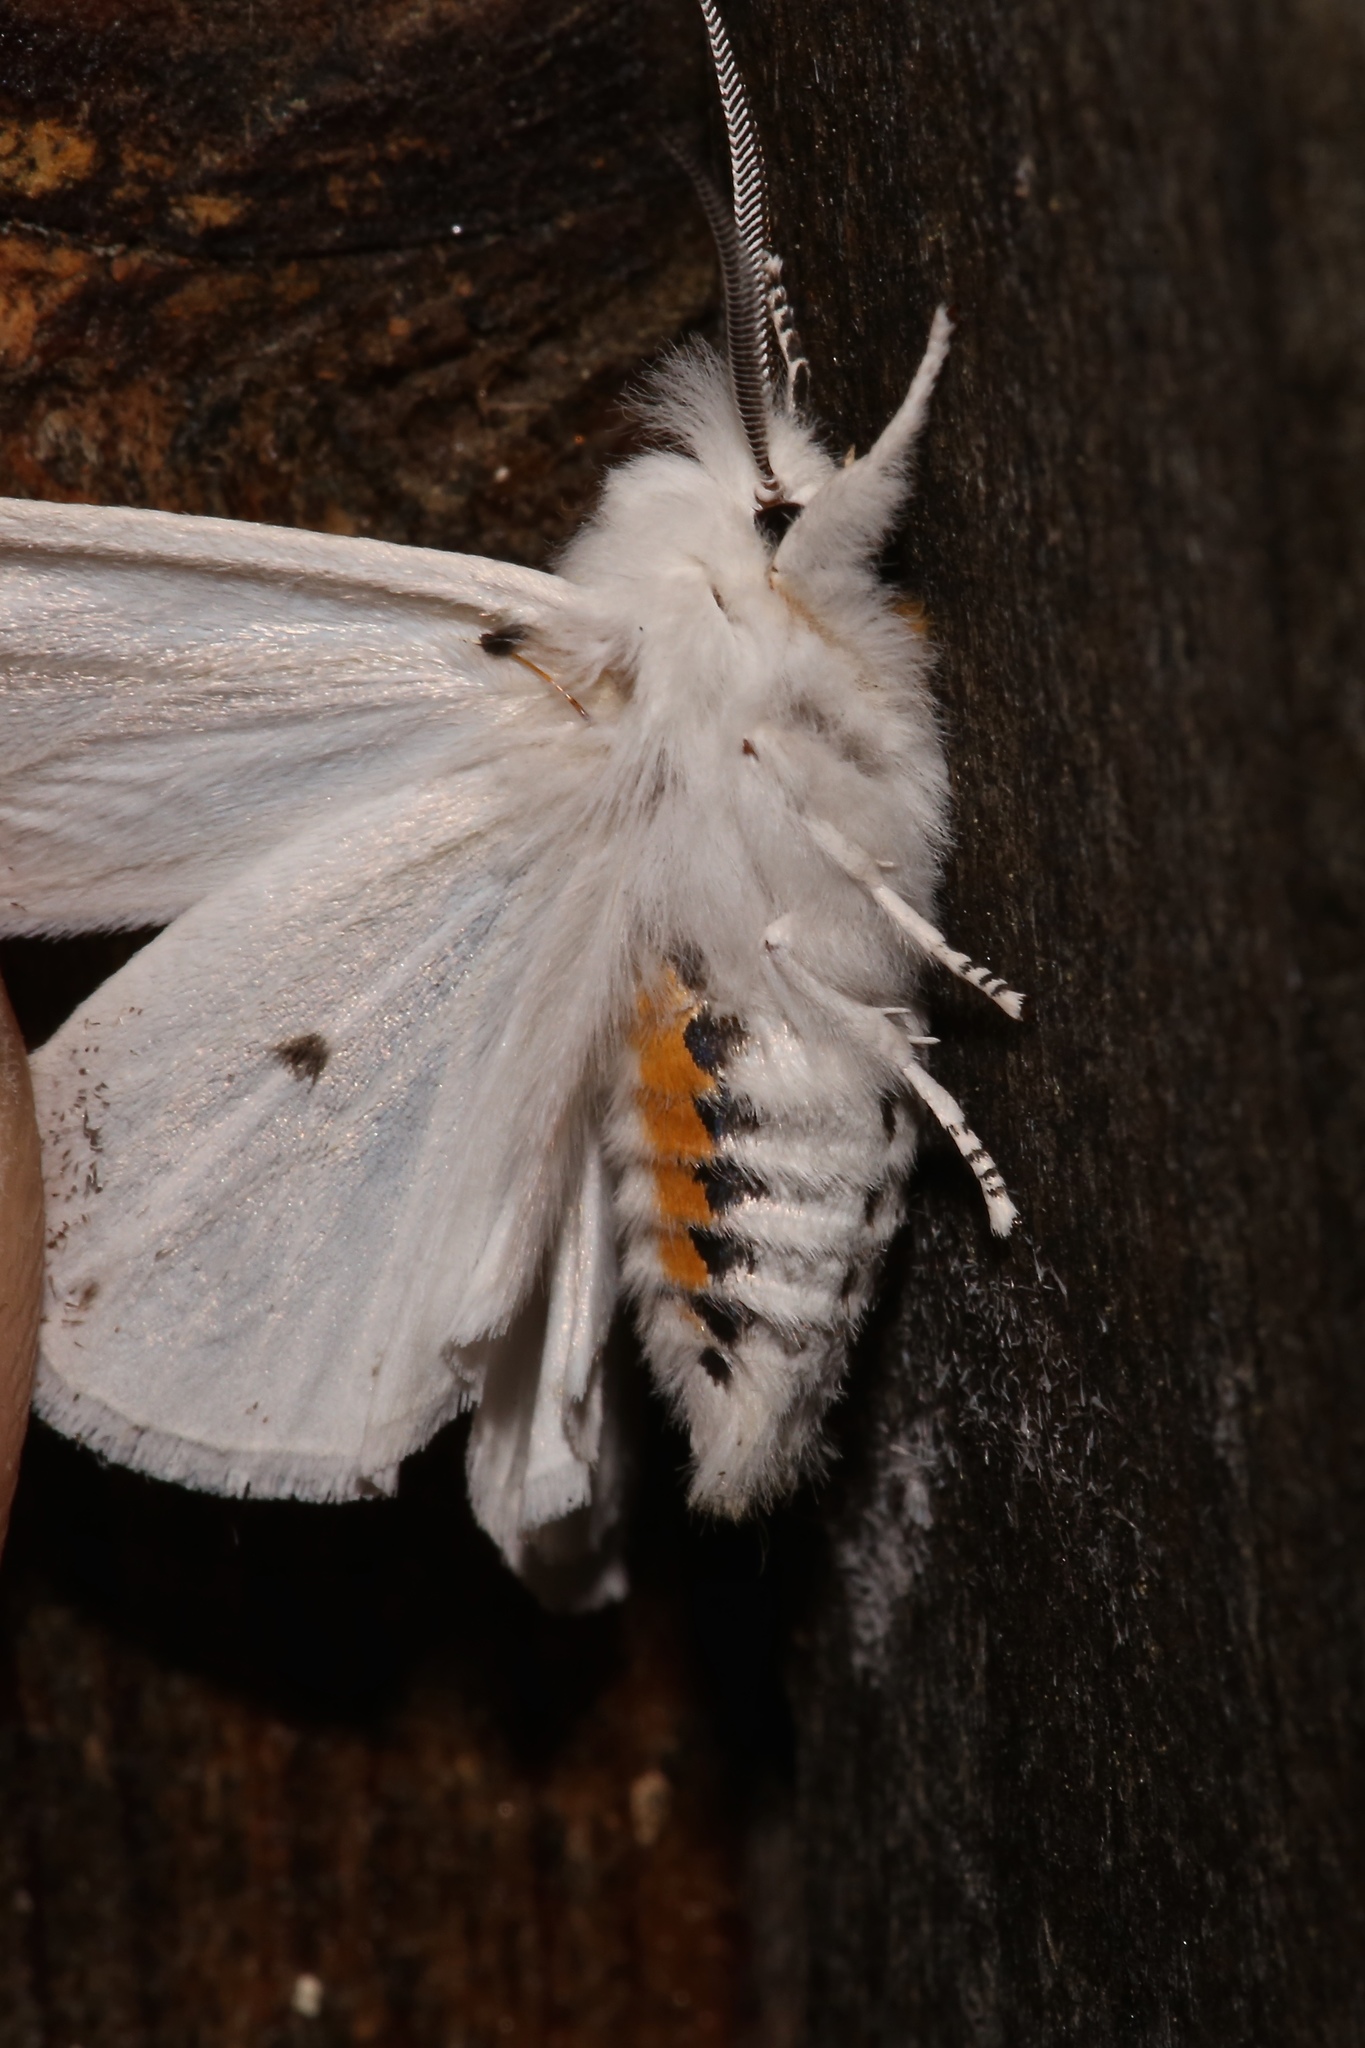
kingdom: Animalia
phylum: Arthropoda
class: Insecta
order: Lepidoptera
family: Erebidae
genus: Spilosoma
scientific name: Spilosoma virginica
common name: Virginia tiger moth
